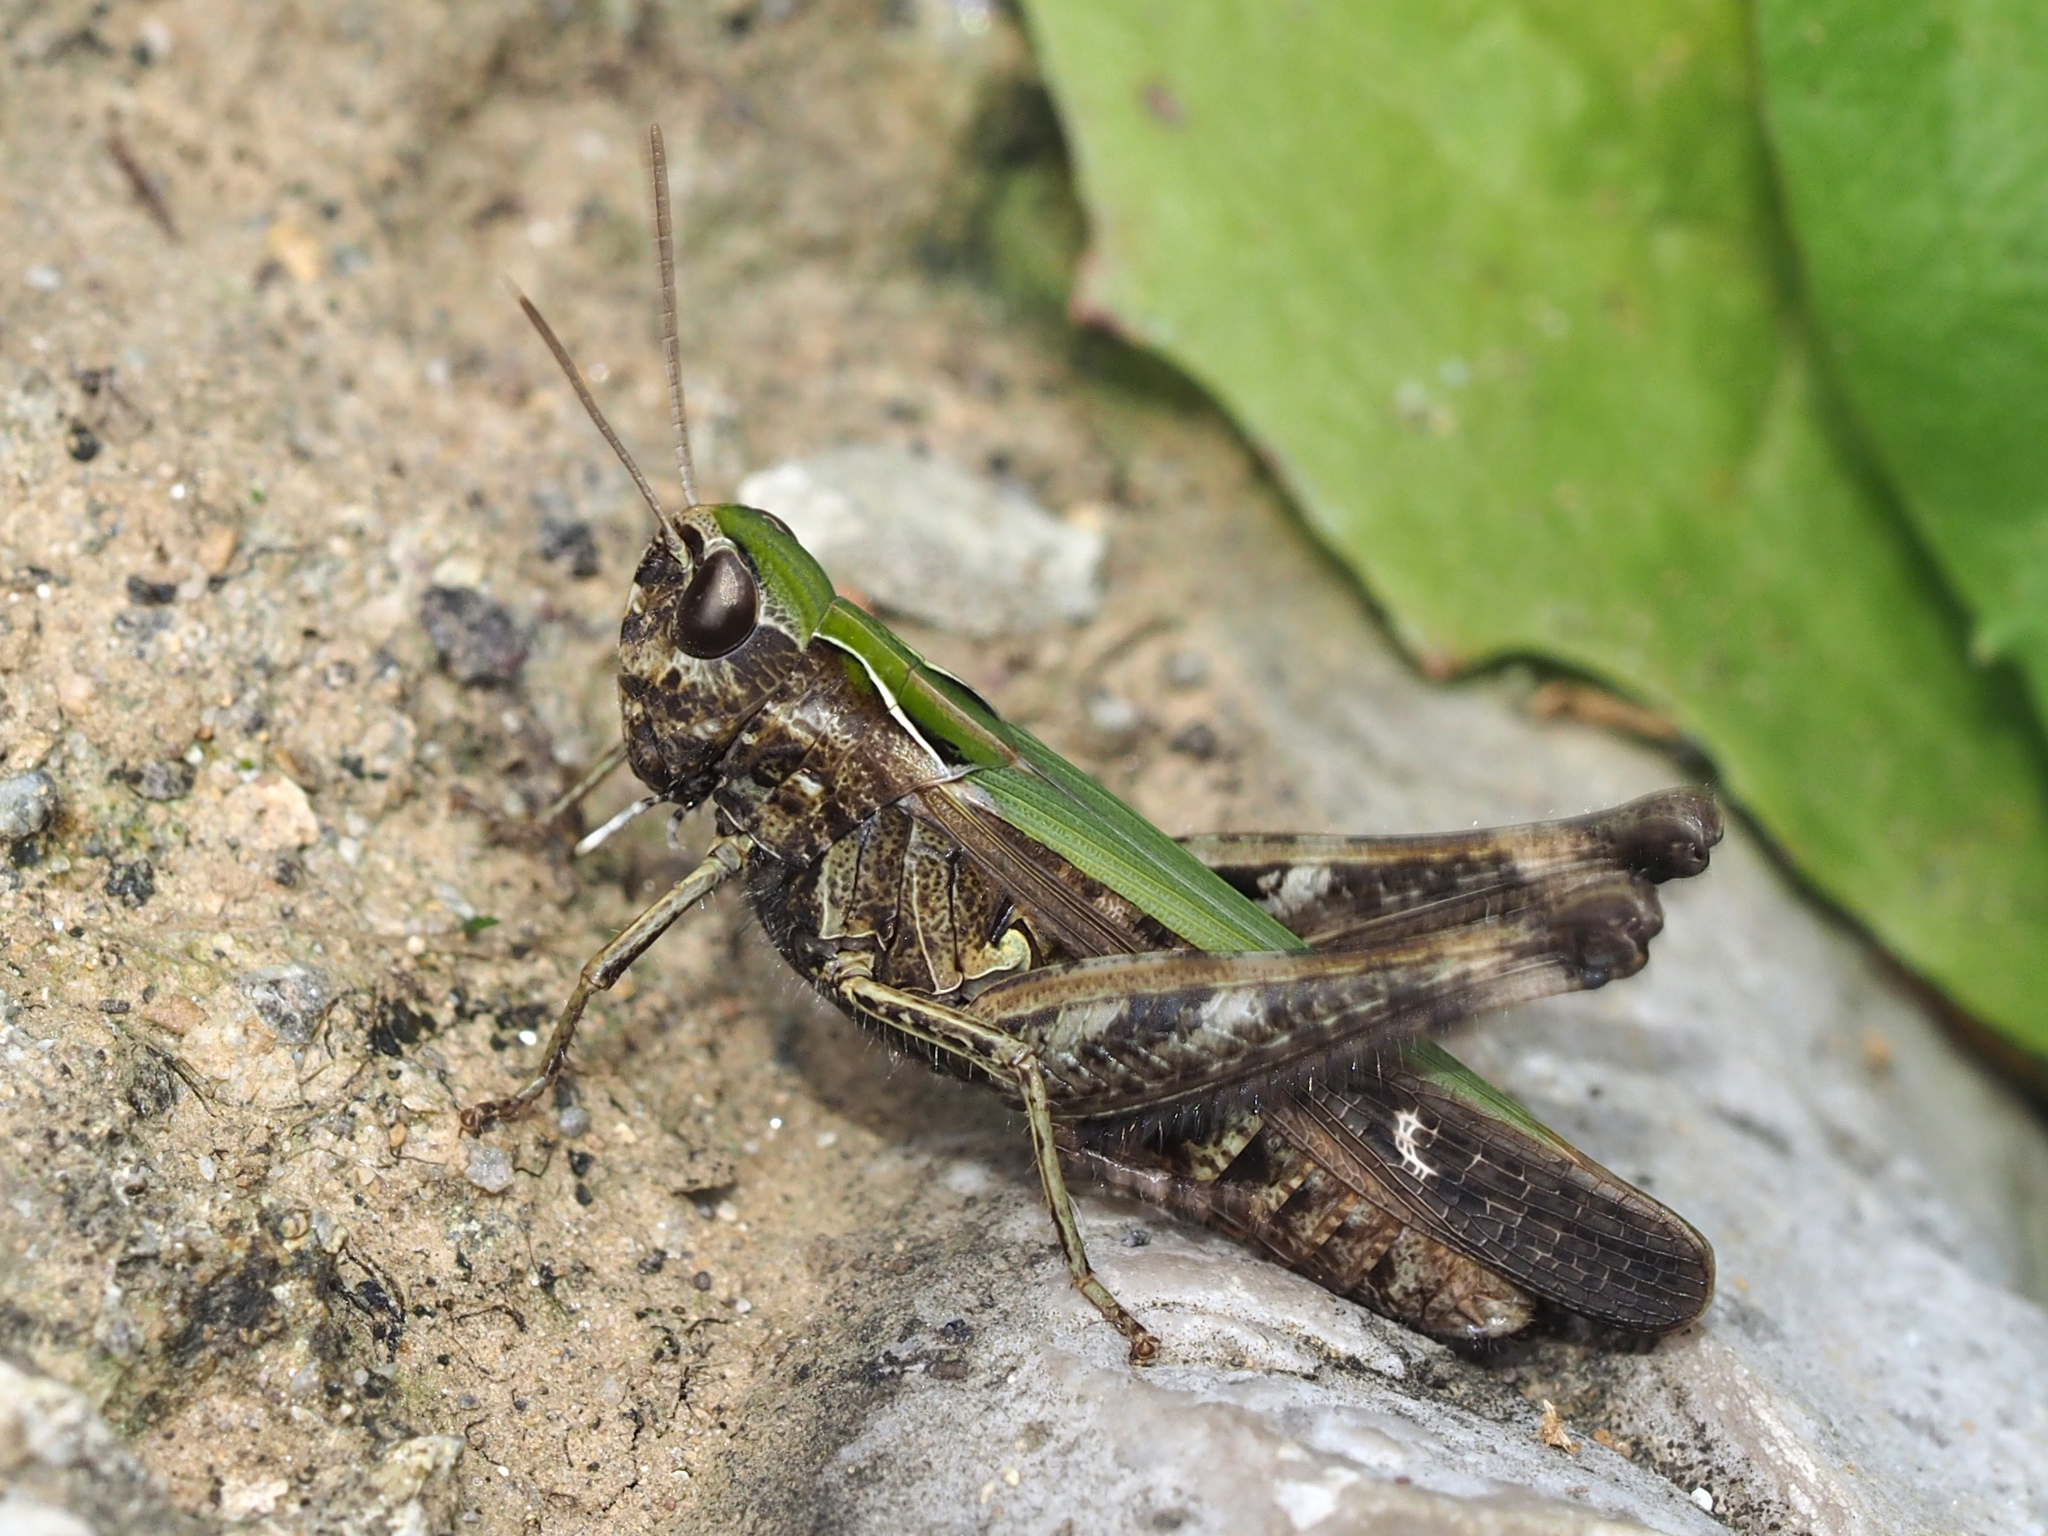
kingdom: Animalia
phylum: Arthropoda
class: Insecta
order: Orthoptera
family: Acrididae
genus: Omocestus
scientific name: Omocestus rufipes
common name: Woodland grasshopper
